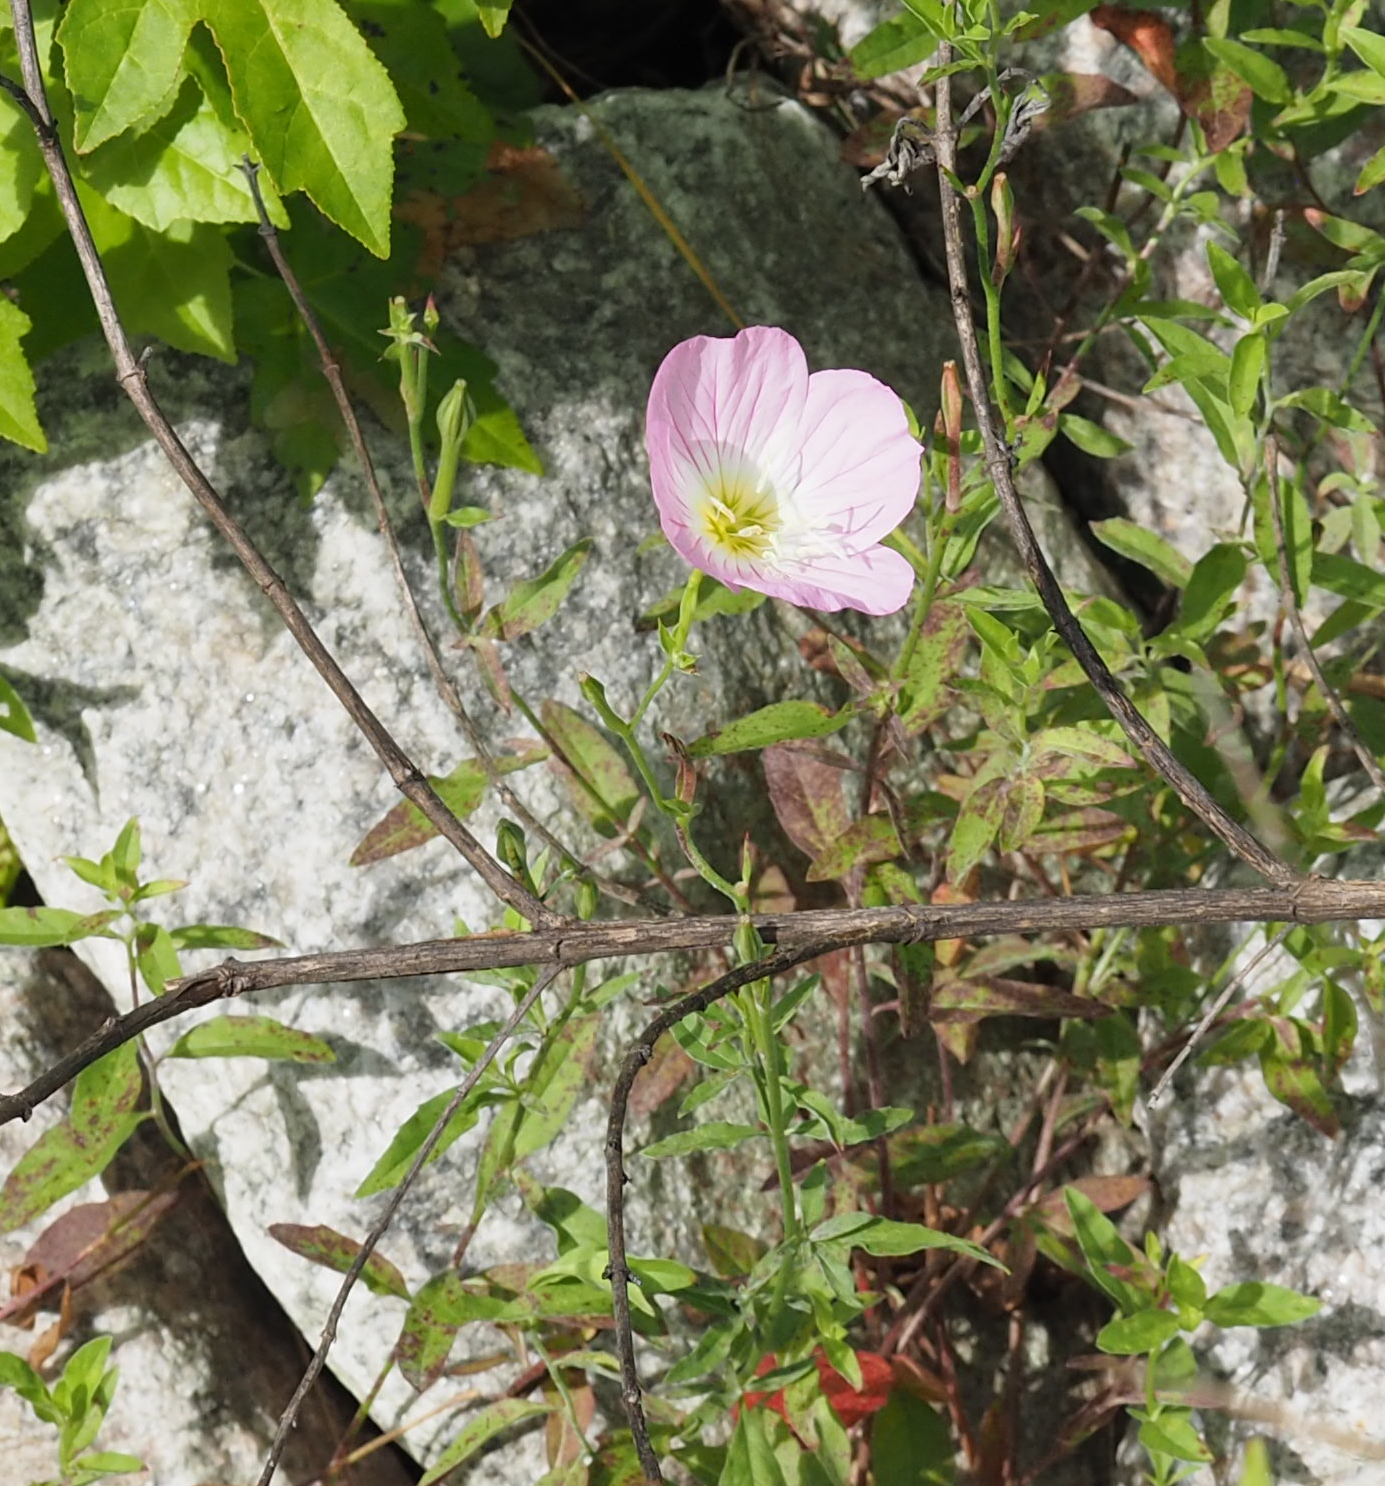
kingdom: Plantae
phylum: Tracheophyta
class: Magnoliopsida
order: Myrtales
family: Onagraceae
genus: Oenothera
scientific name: Oenothera speciosa
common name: White evening-primrose
